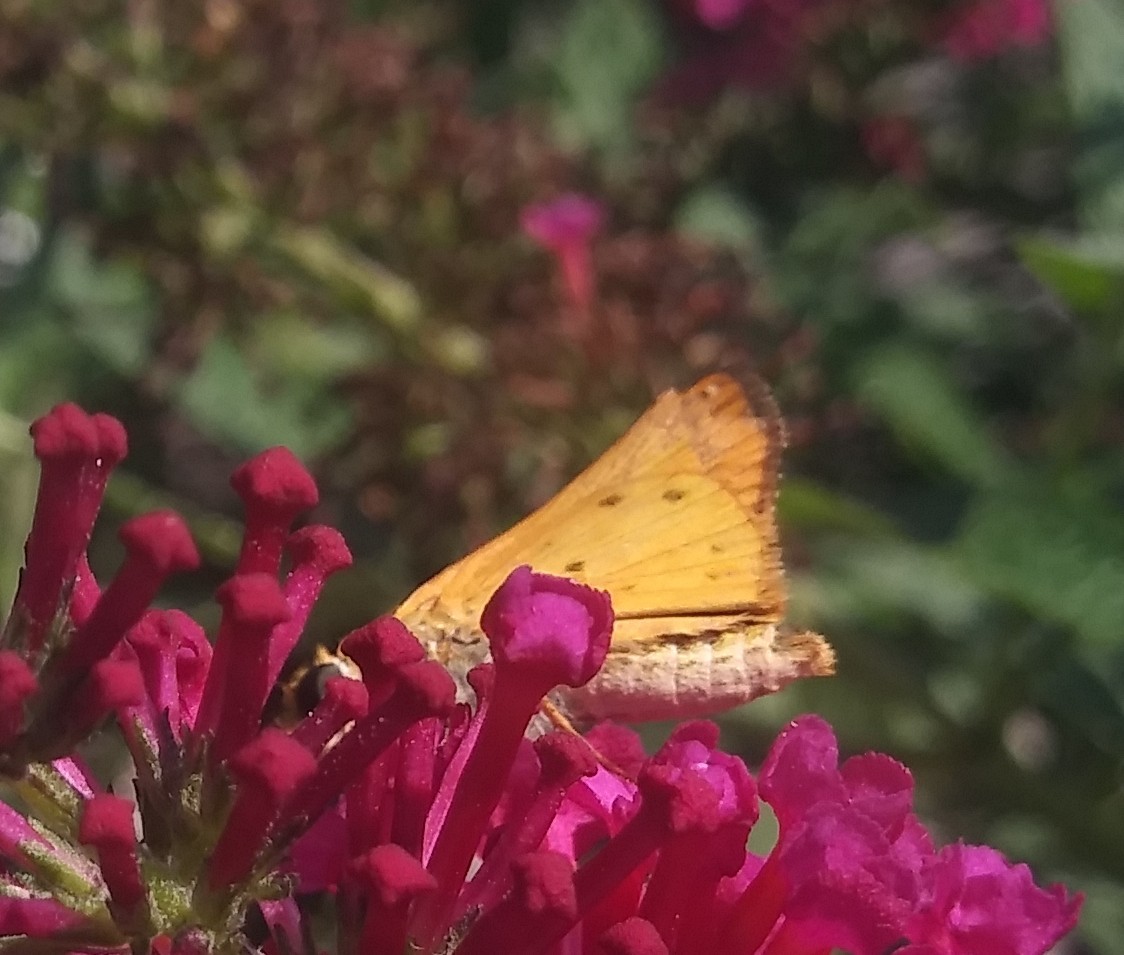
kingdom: Animalia
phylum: Arthropoda
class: Insecta
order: Lepidoptera
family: Hesperiidae
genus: Hylephila
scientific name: Hylephila phyleus
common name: Fiery skipper
